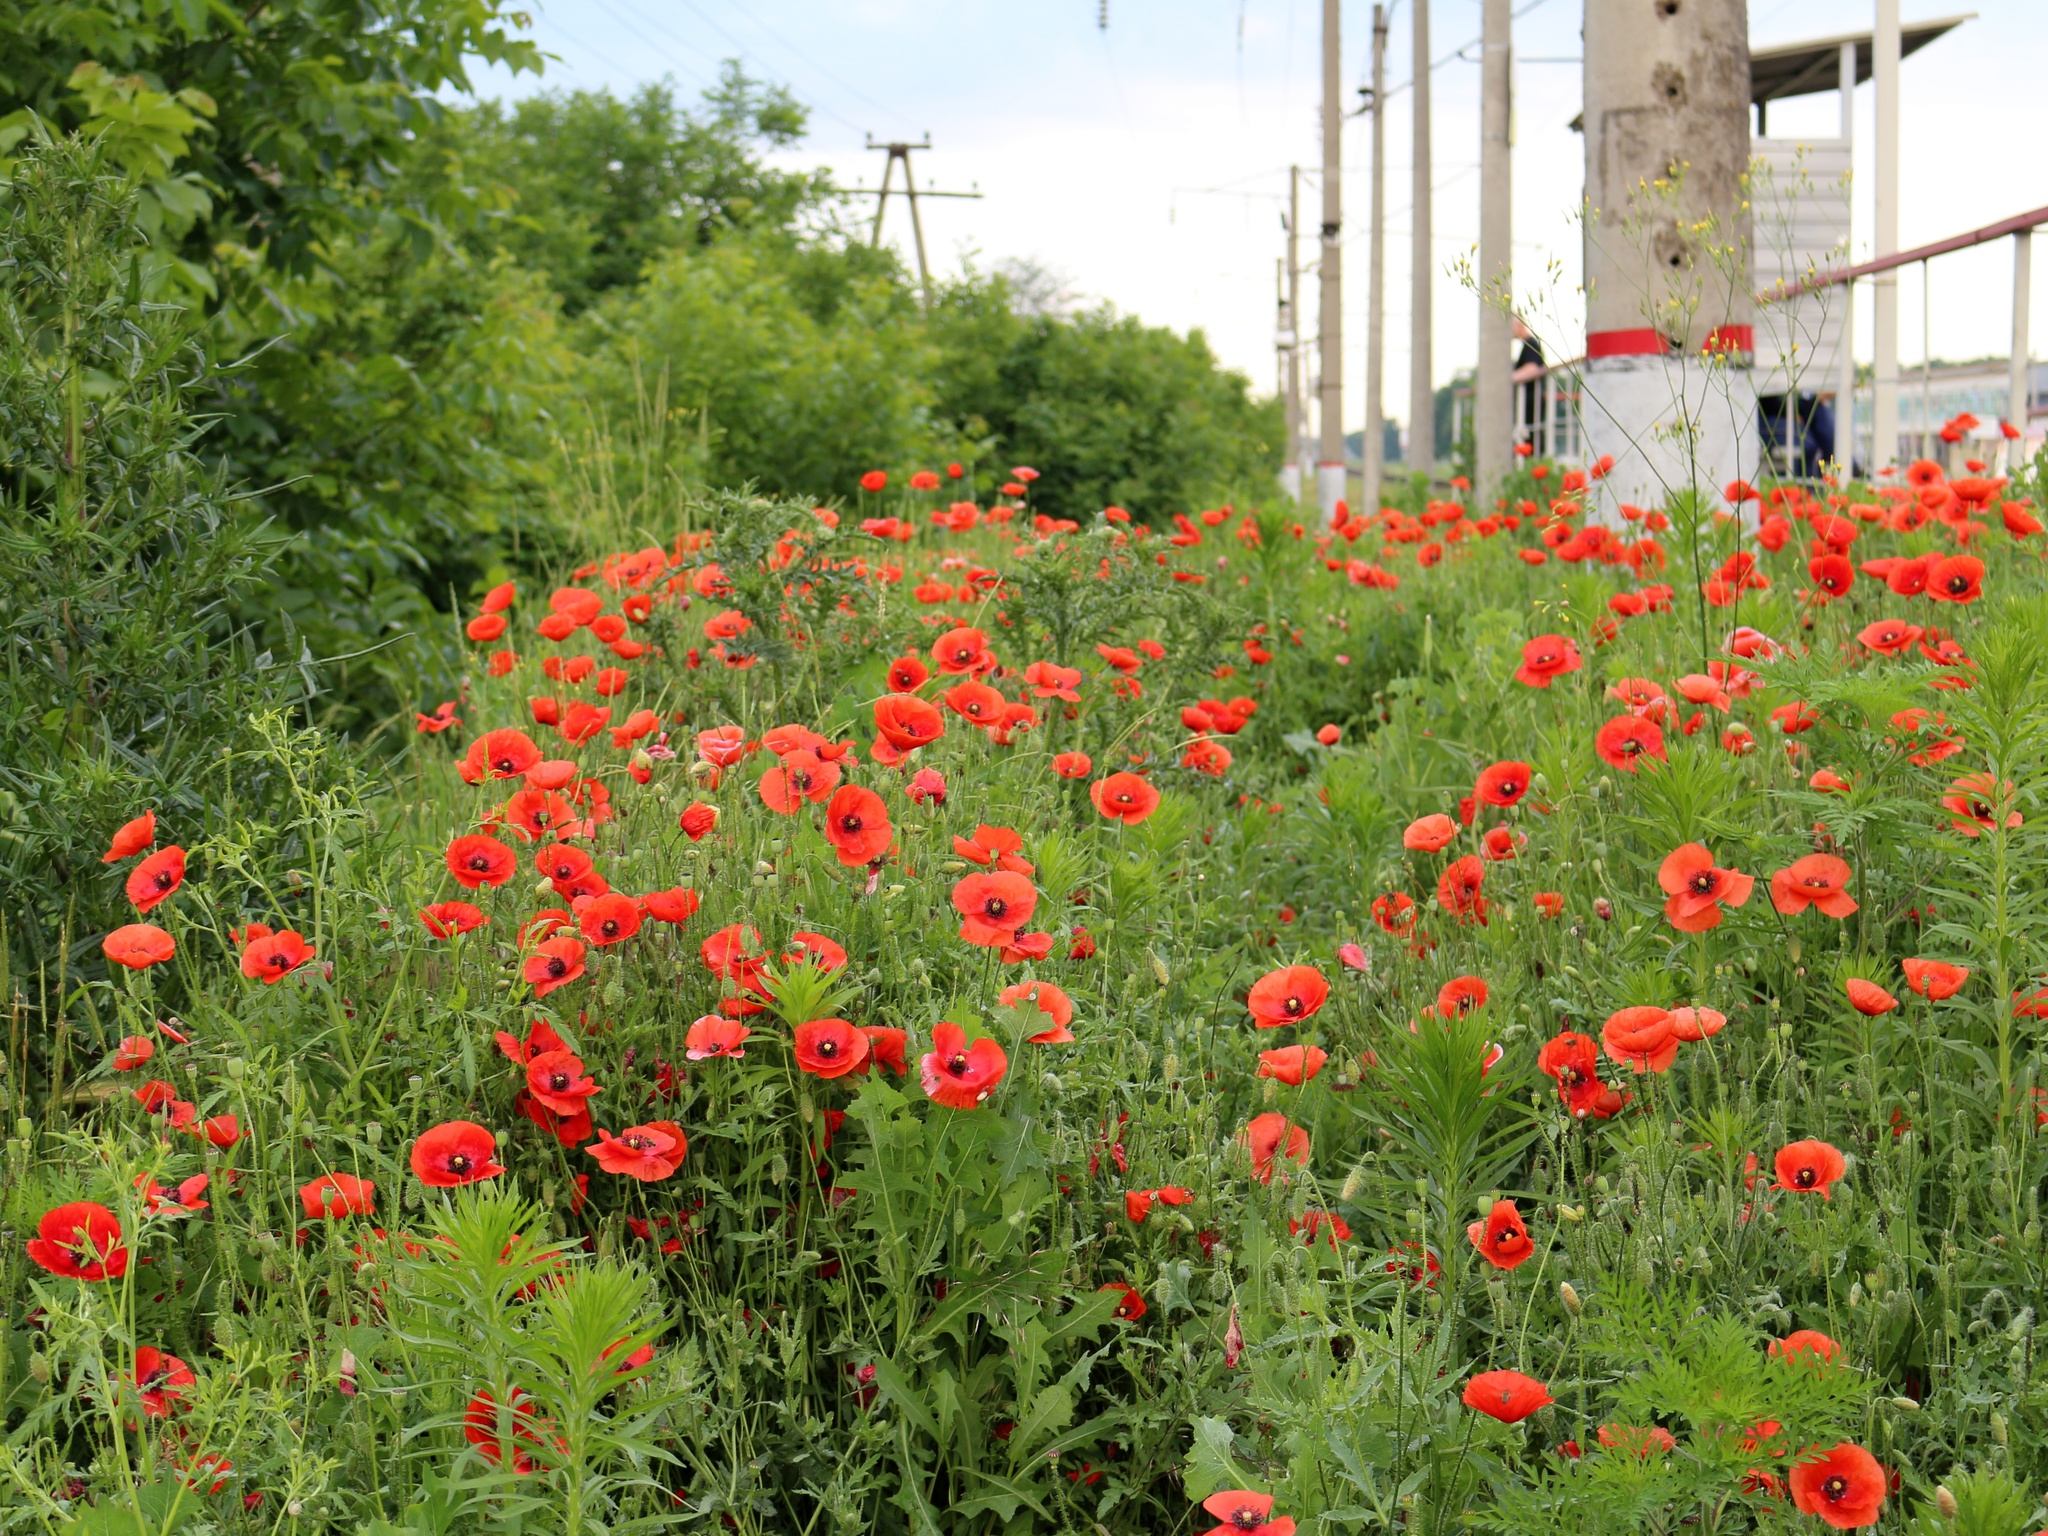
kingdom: Plantae
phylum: Tracheophyta
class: Magnoliopsida
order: Ranunculales
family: Papaveraceae
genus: Papaver
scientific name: Papaver rhoeas
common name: Corn poppy
